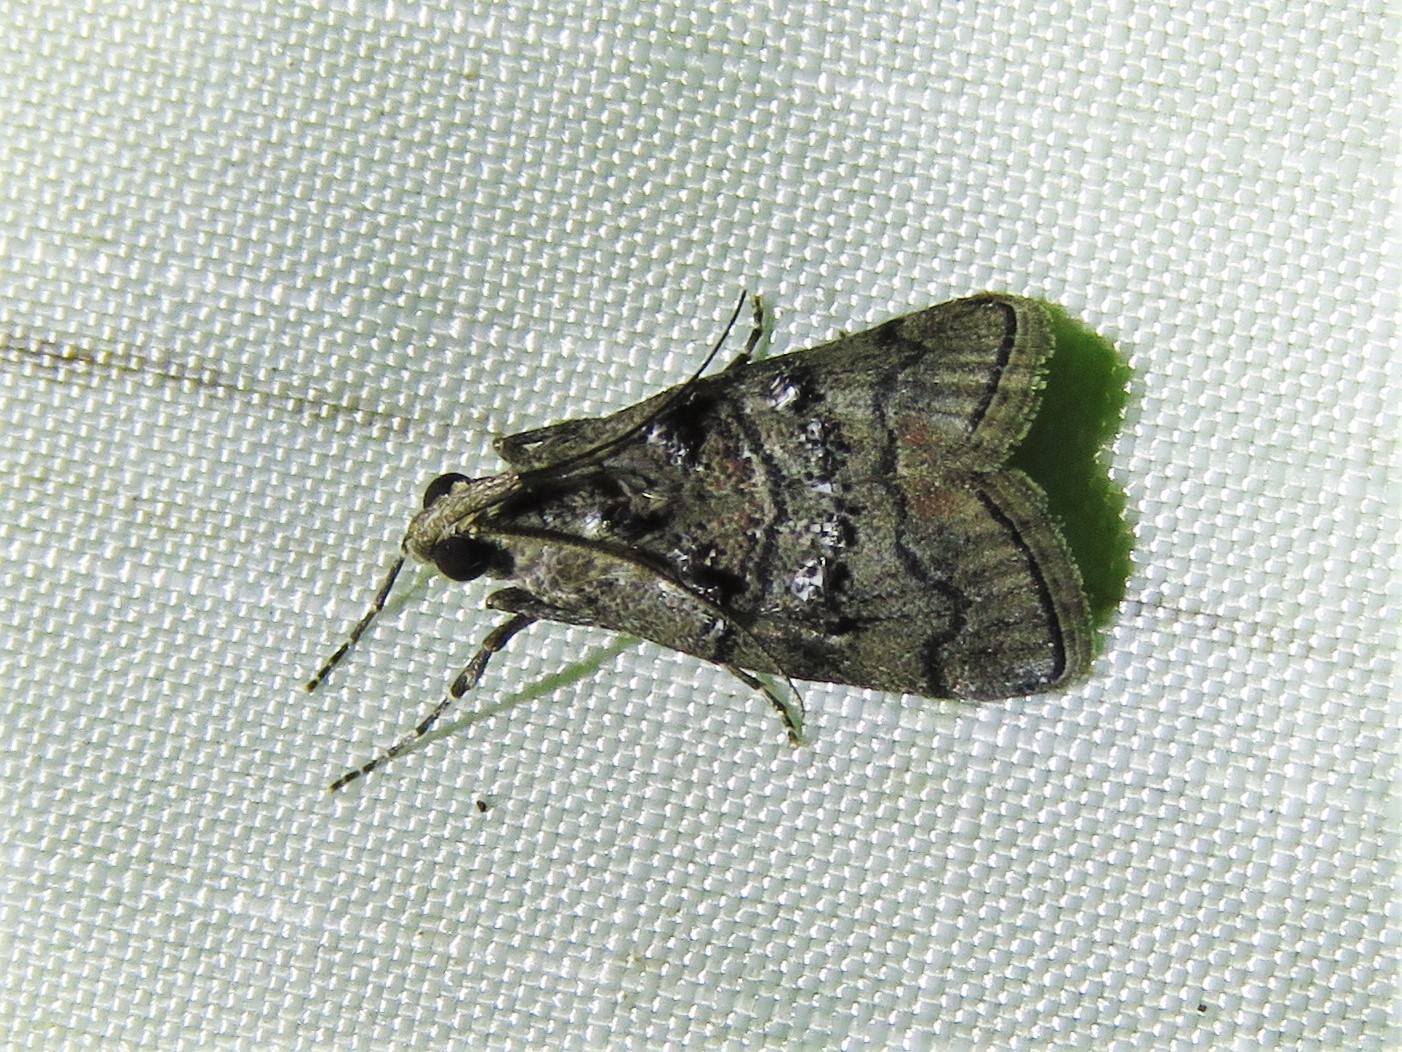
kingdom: Animalia
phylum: Arthropoda
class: Insecta
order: Lepidoptera
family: Pyralidae
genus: Pococera
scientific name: Pococera asperatella
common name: Maple webworm moth
